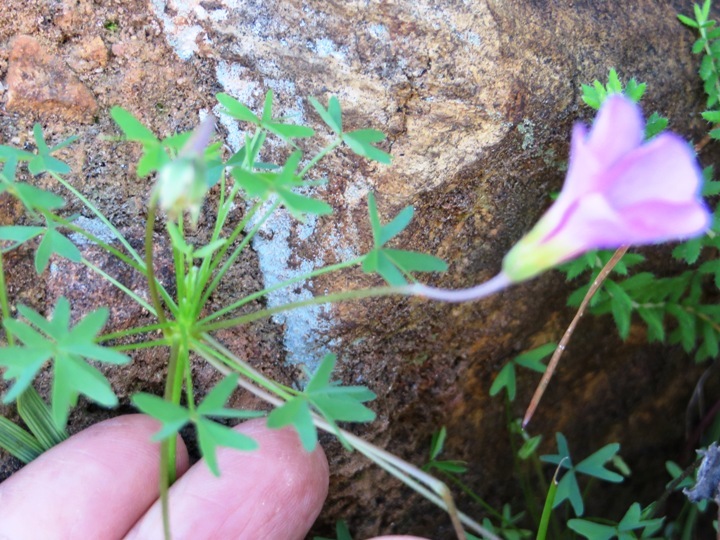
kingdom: Plantae
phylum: Tracheophyta
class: Magnoliopsida
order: Oxalidales
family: Oxalidaceae
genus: Oxalis
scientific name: Oxalis bifida
